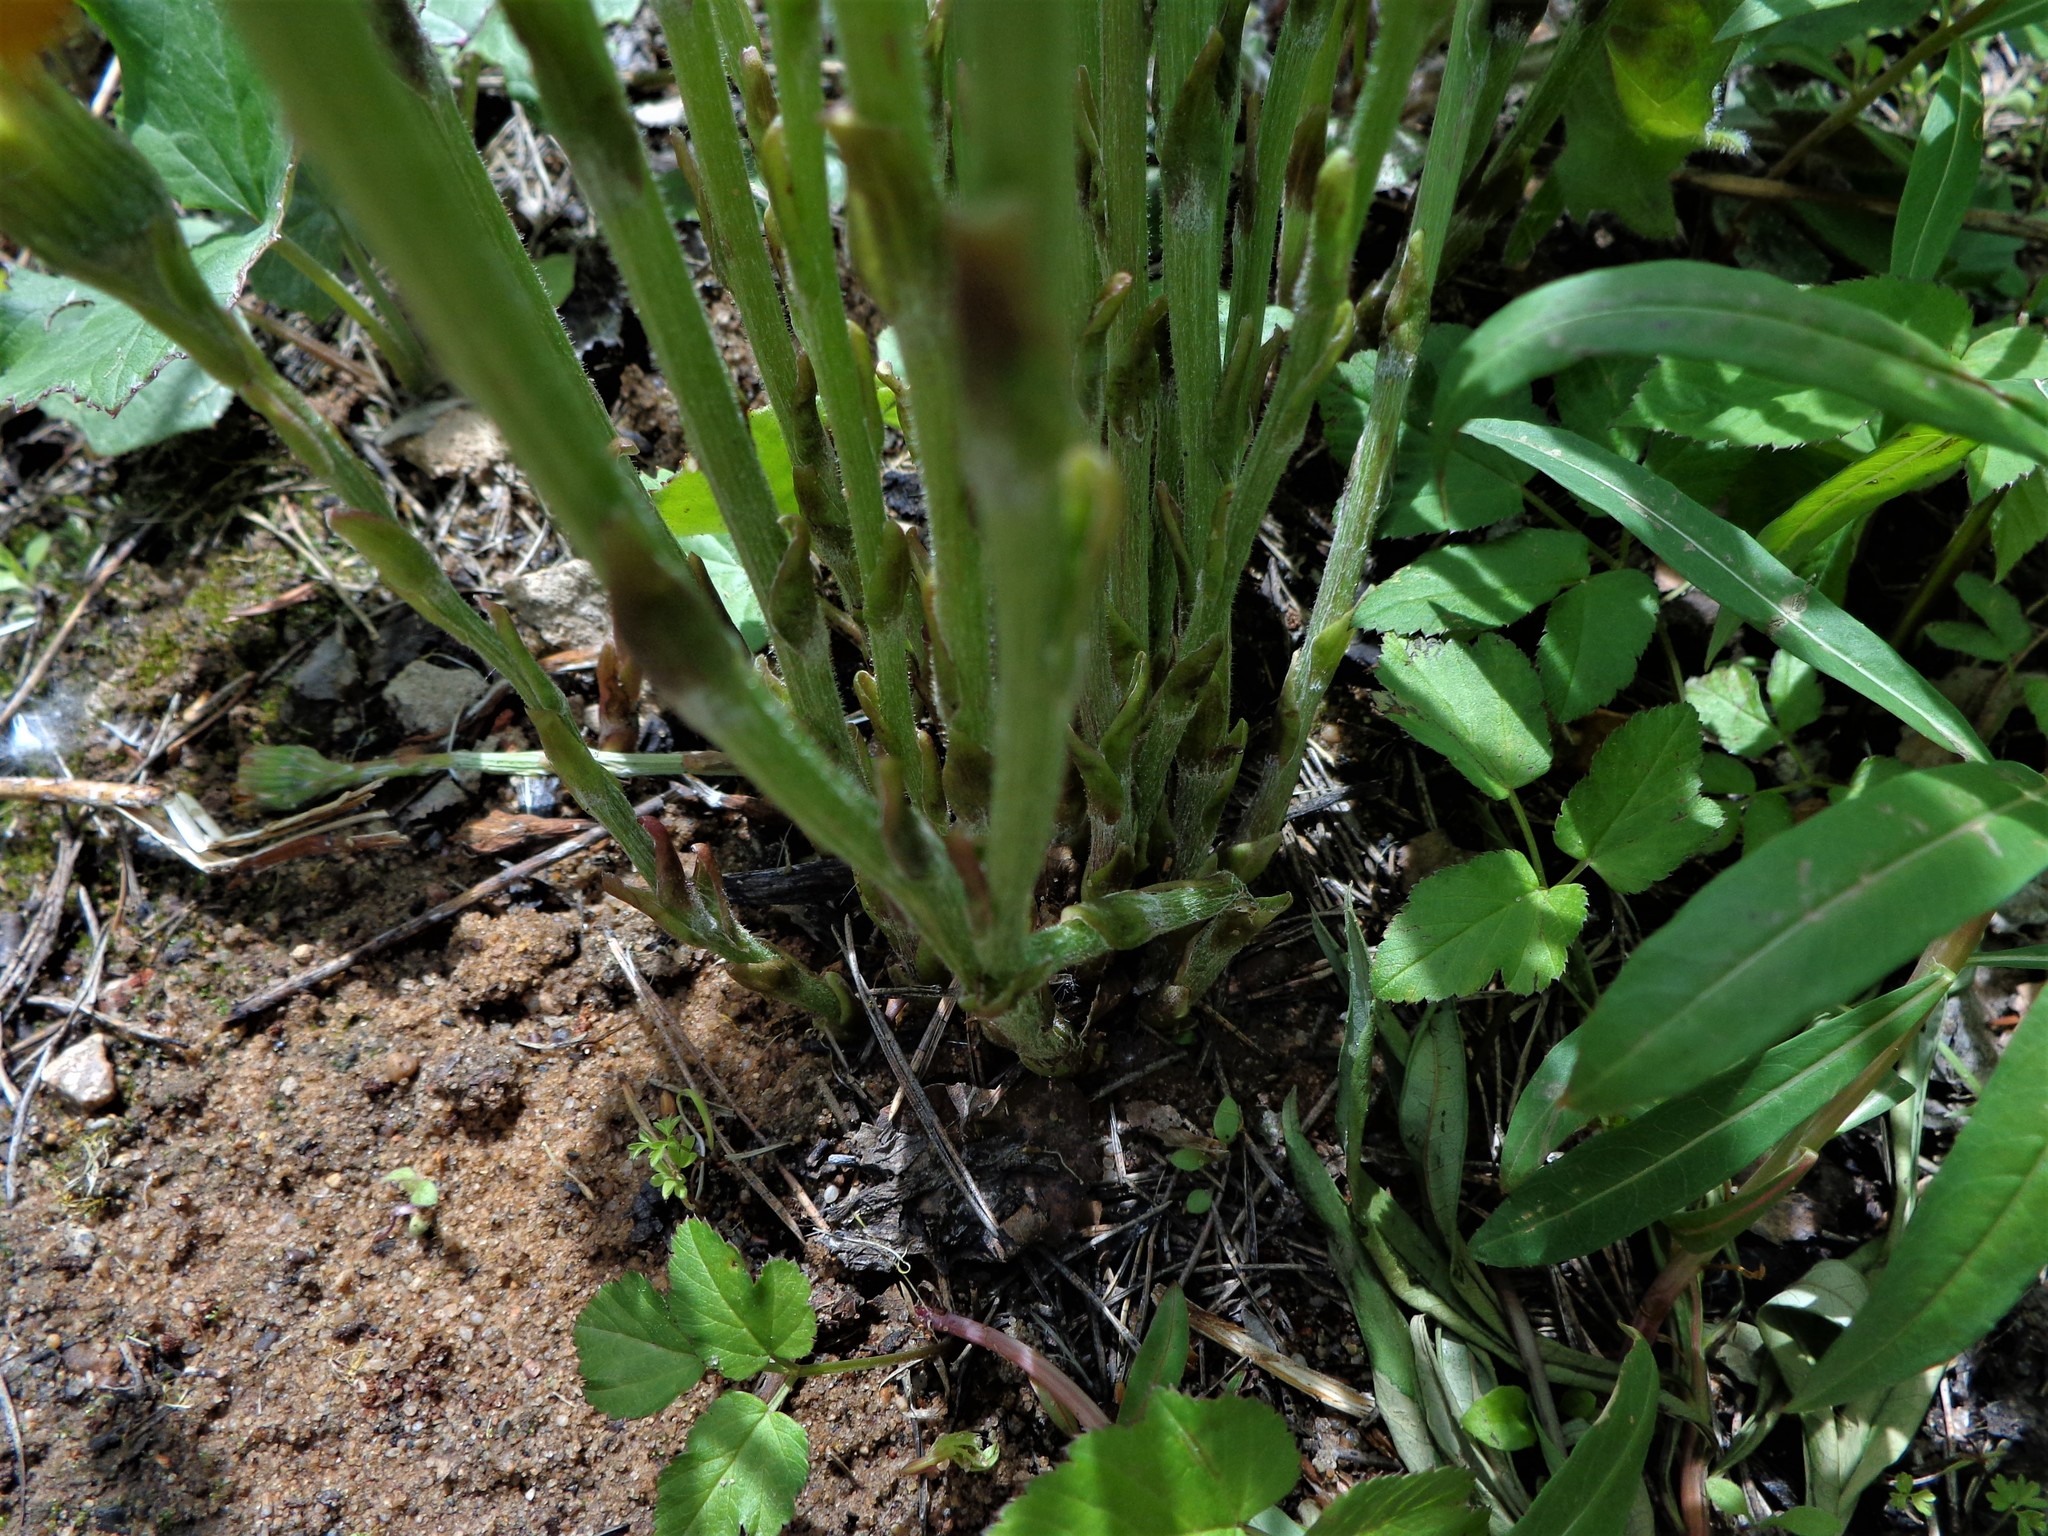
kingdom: Plantae
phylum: Tracheophyta
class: Magnoliopsida
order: Asterales
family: Asteraceae
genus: Tussilago
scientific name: Tussilago farfara
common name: Coltsfoot
